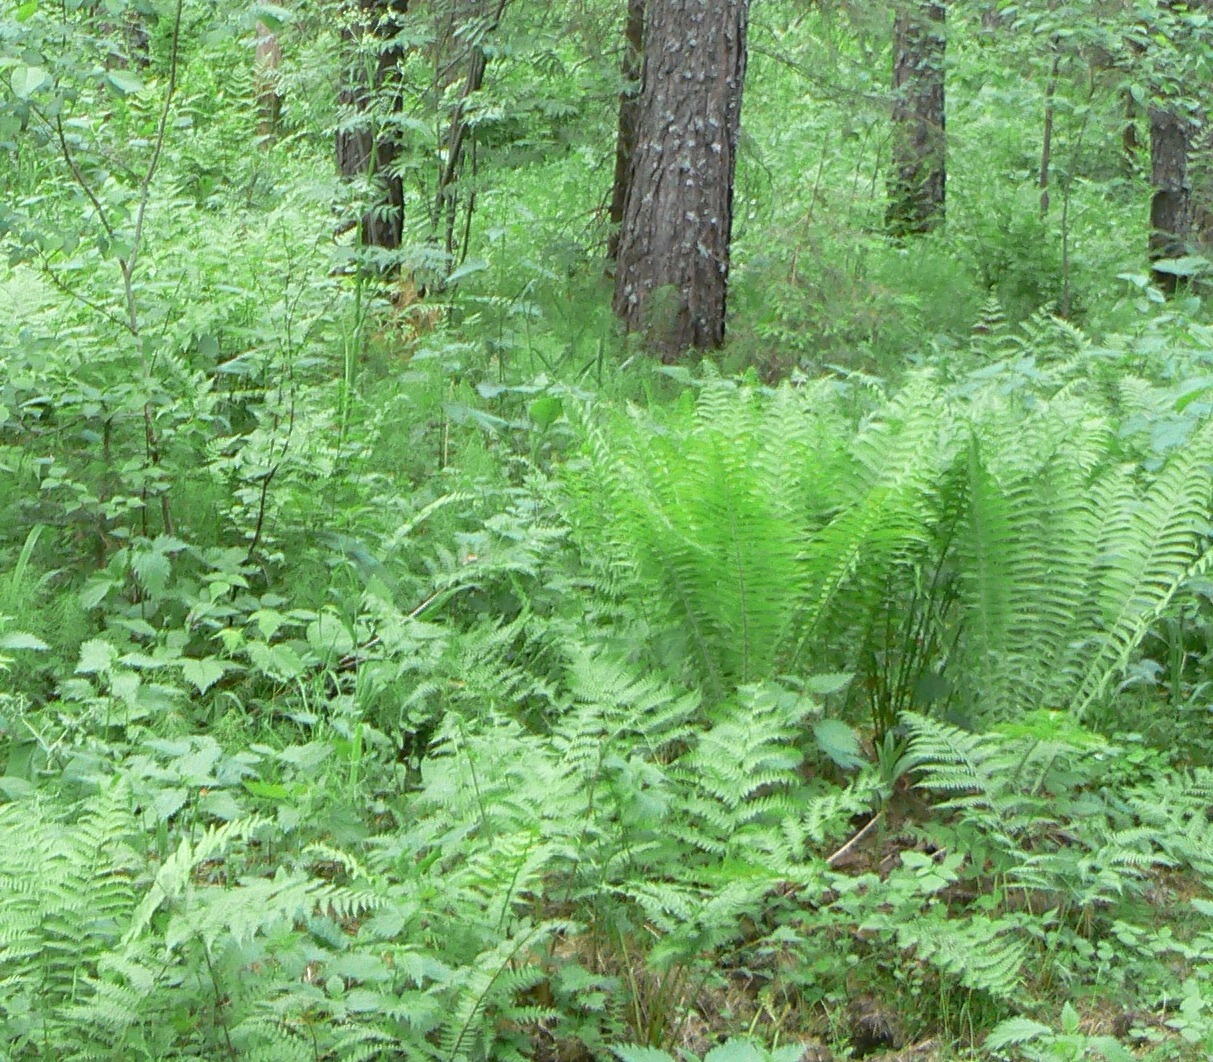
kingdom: Plantae
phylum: Tracheophyta
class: Polypodiopsida
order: Polypodiales
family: Onocleaceae
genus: Matteuccia
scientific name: Matteuccia struthiopteris
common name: Ostrich fern
